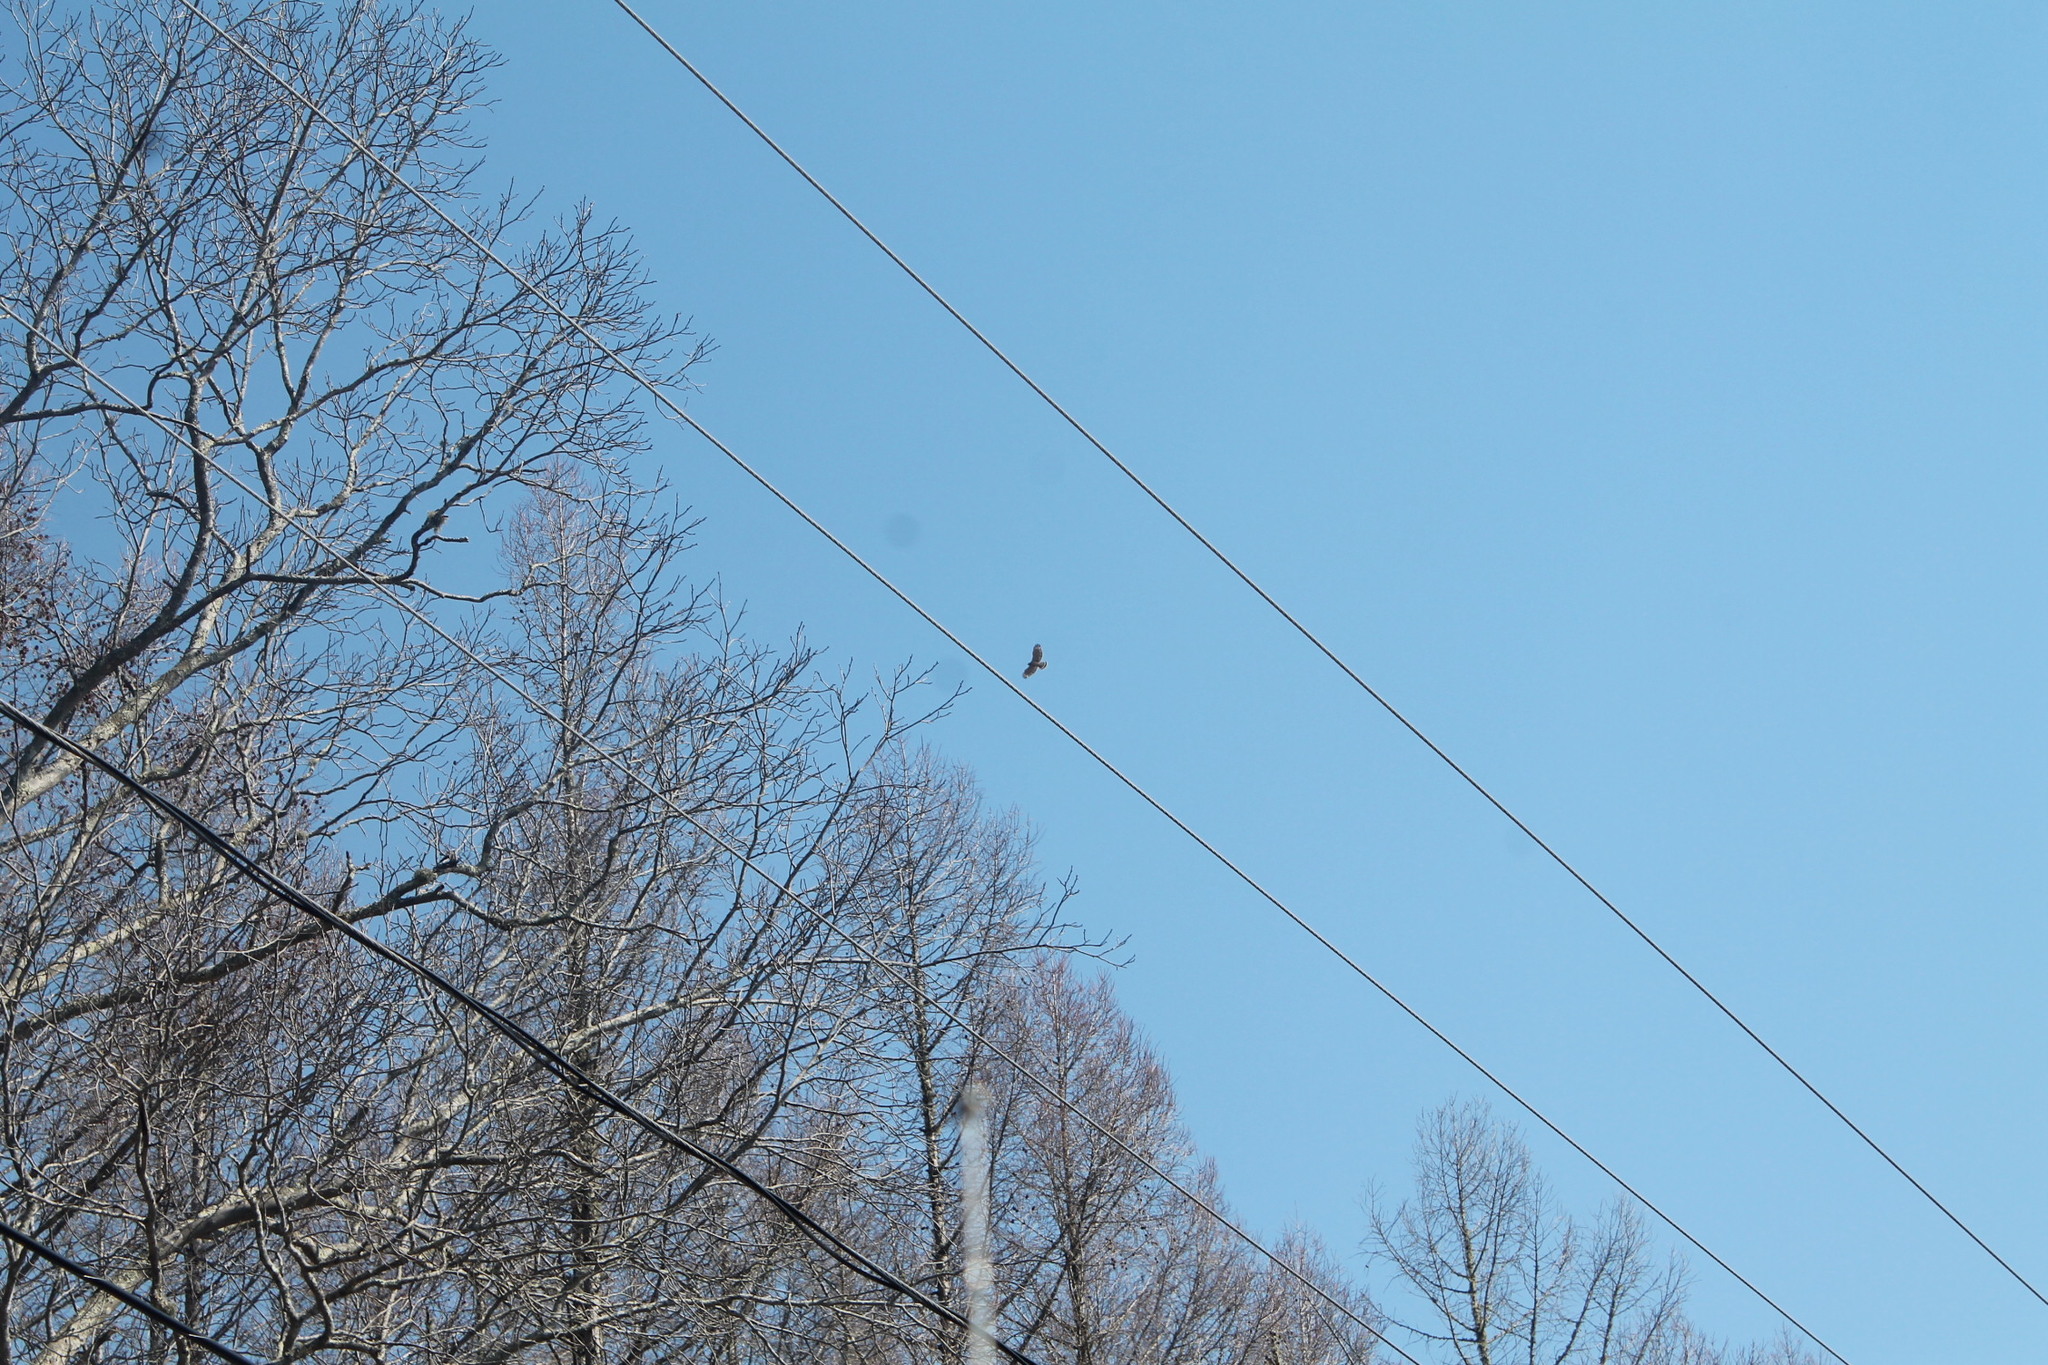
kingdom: Animalia
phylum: Chordata
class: Aves
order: Accipitriformes
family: Accipitridae
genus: Buteo
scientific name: Buteo lineatus
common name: Red-shouldered hawk
